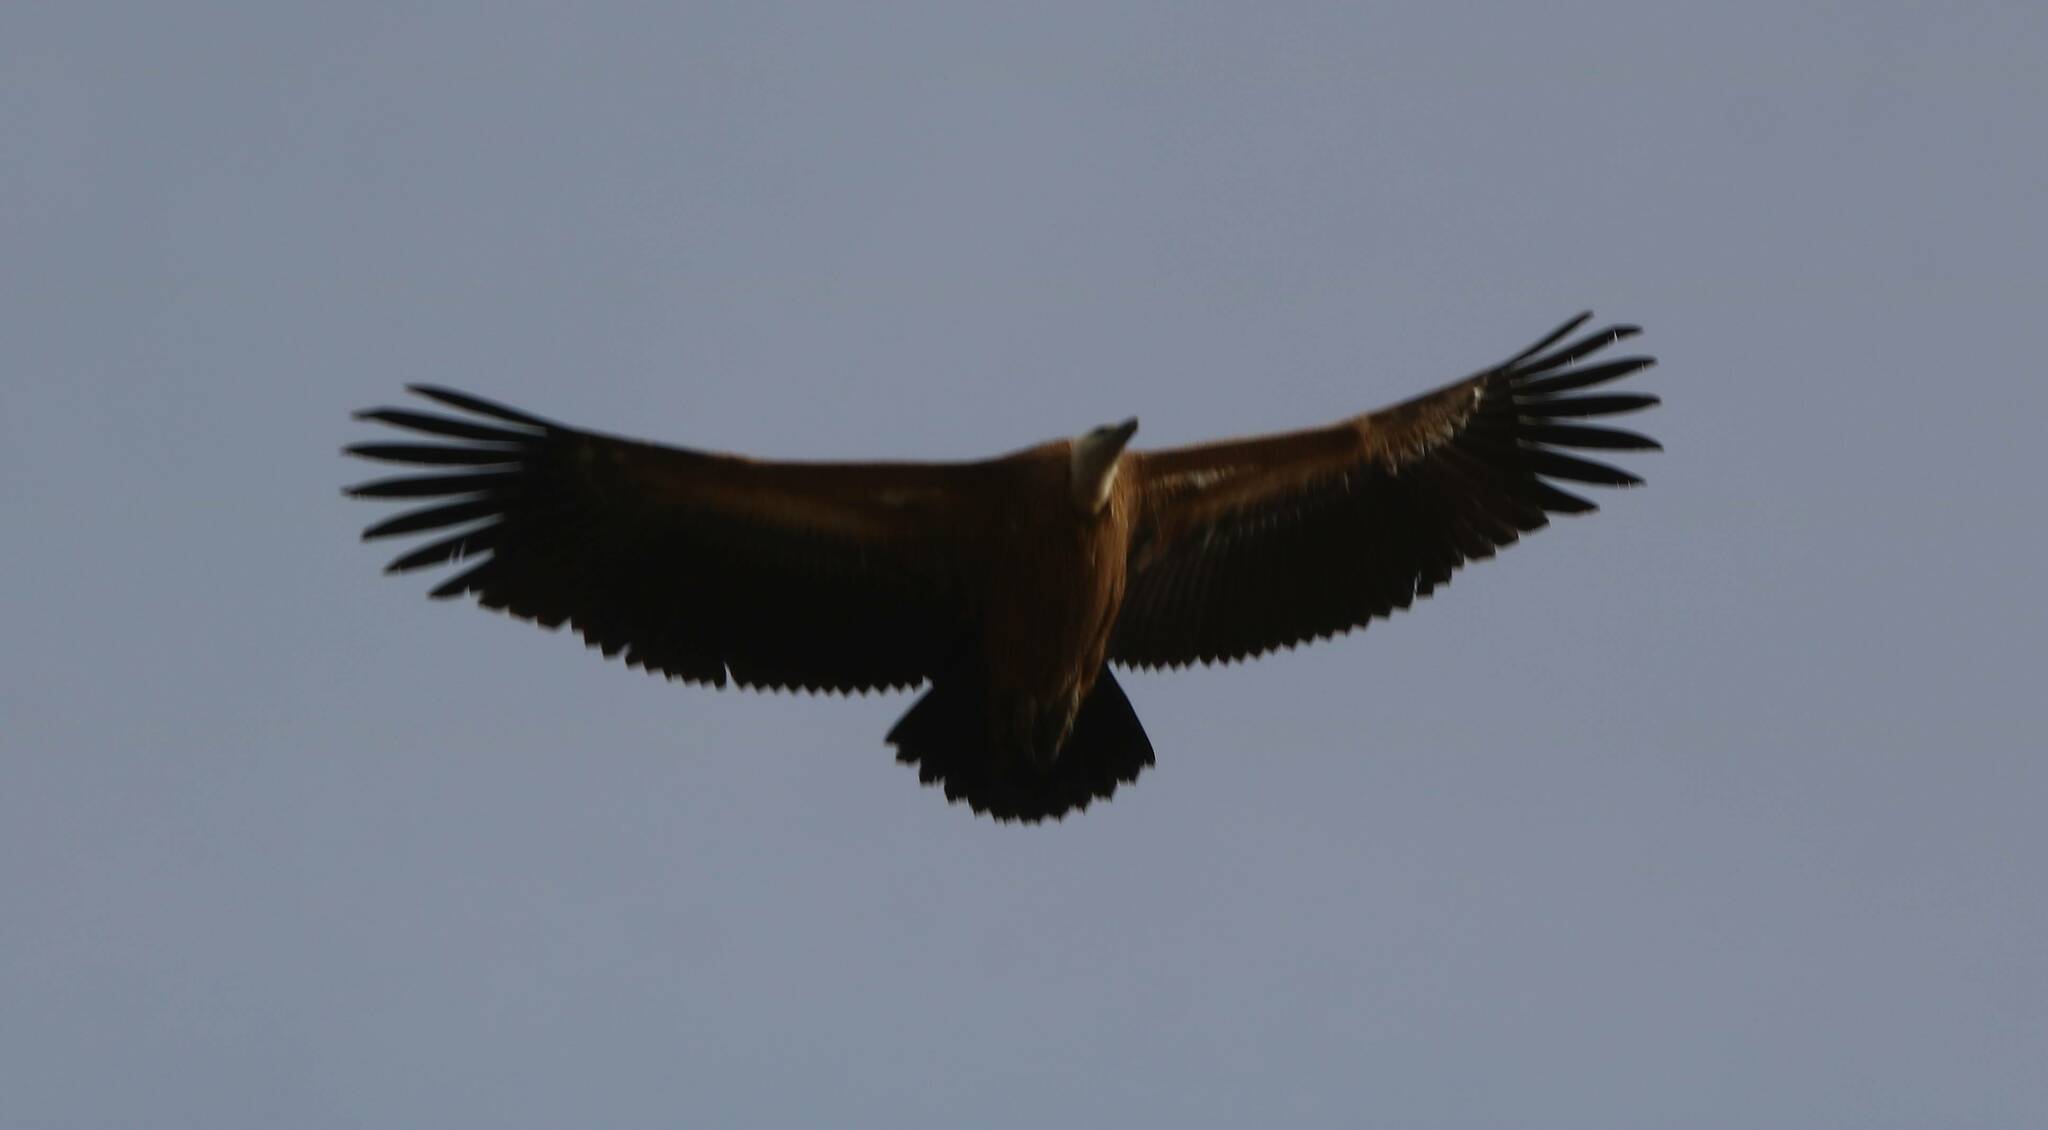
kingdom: Animalia
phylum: Chordata
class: Aves
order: Accipitriformes
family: Accipitridae
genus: Gyps
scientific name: Gyps fulvus
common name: Griffon vulture
